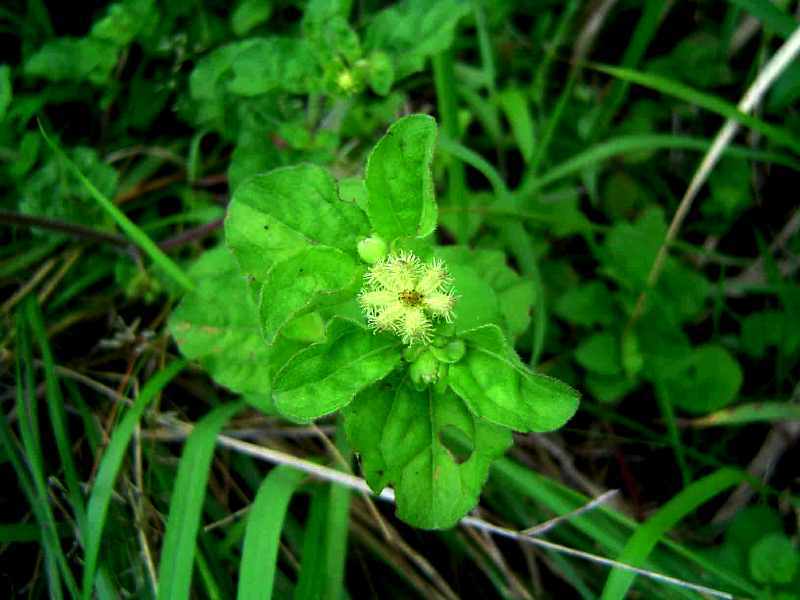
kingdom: Plantae
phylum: Tracheophyta
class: Magnoliopsida
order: Asterales
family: Asteraceae
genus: Acanthospermum
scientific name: Acanthospermum australe
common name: Paraguayan starbur
